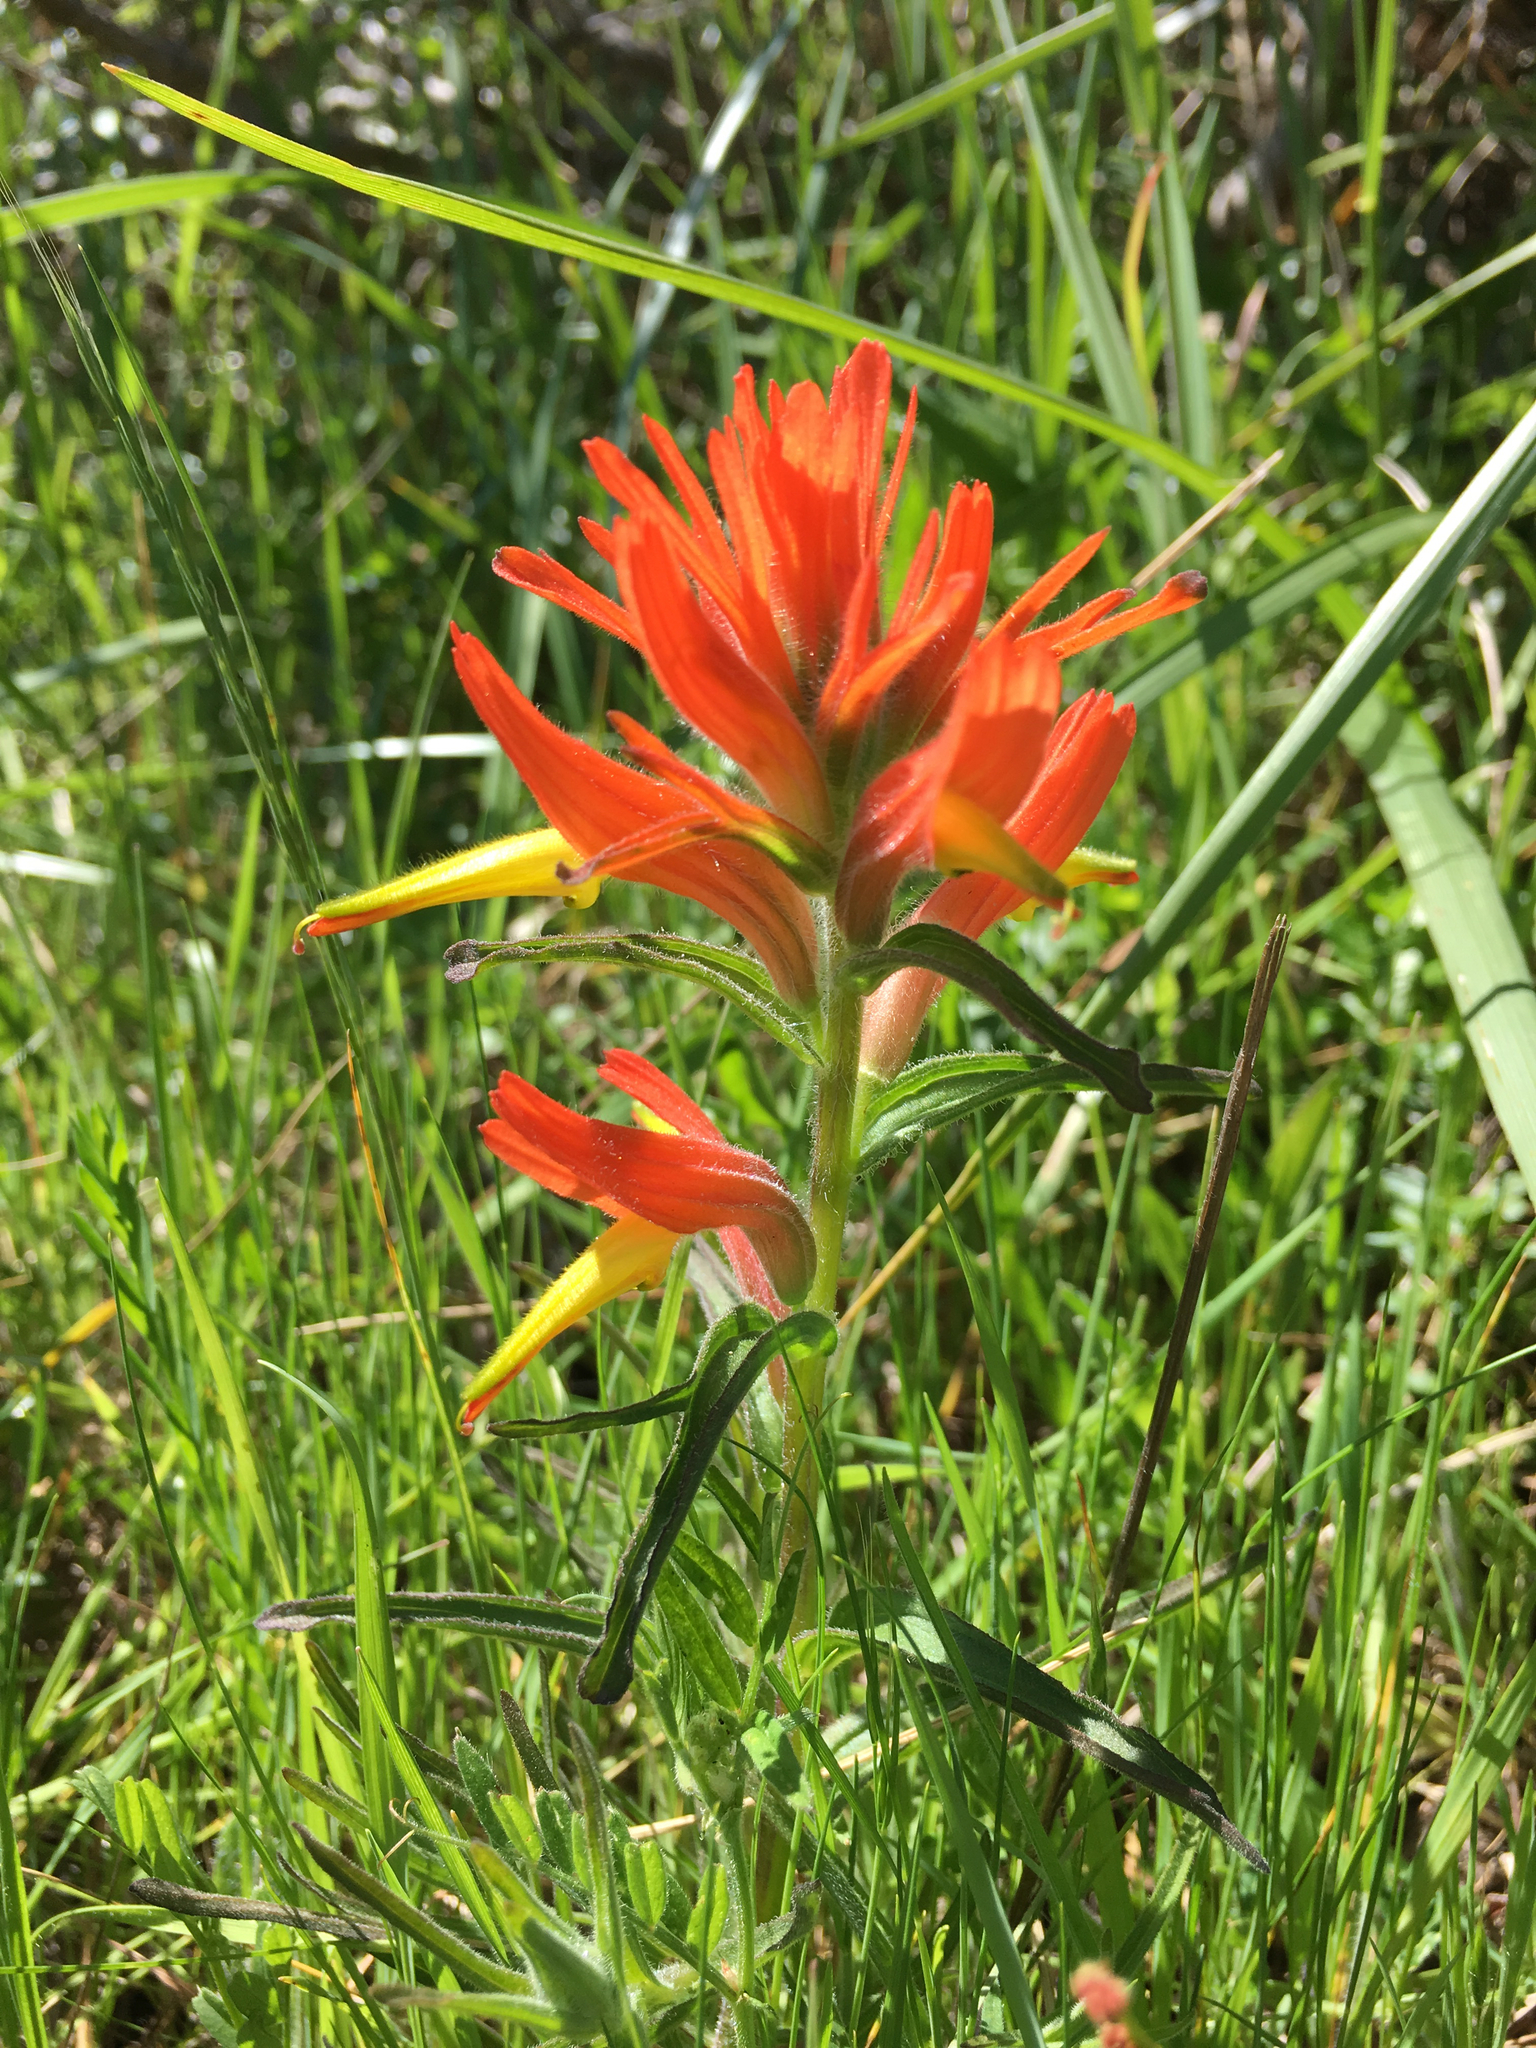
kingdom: Plantae
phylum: Tracheophyta
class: Magnoliopsida
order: Lamiales
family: Orobanchaceae
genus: Castilleja
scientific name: Castilleja subinclusa
